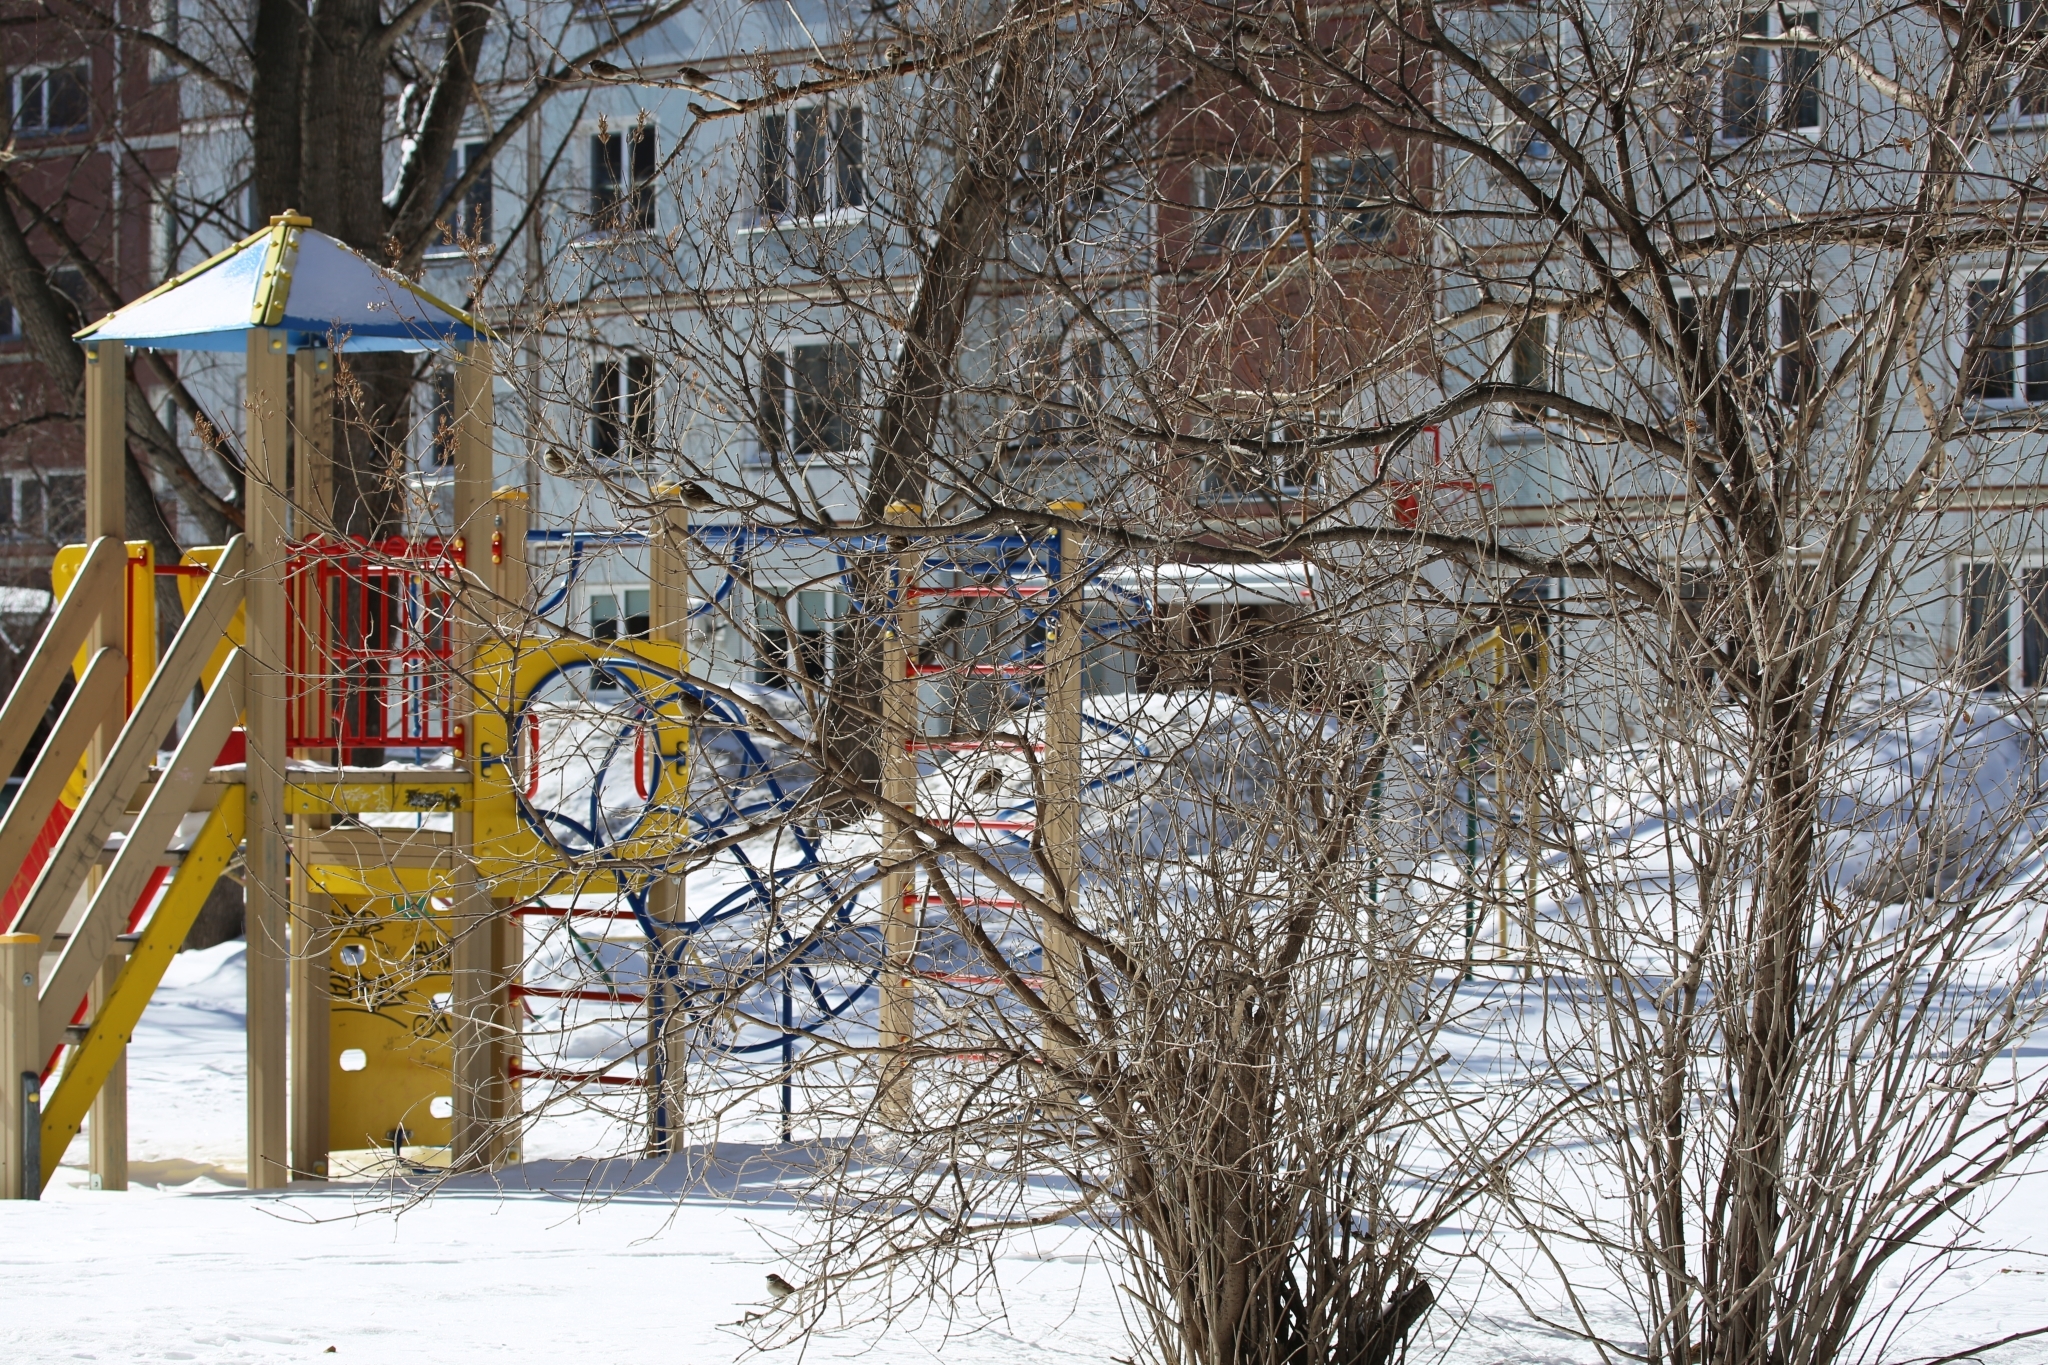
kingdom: Animalia
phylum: Chordata
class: Aves
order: Passeriformes
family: Passeridae
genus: Passer
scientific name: Passer montanus
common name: Eurasian tree sparrow
